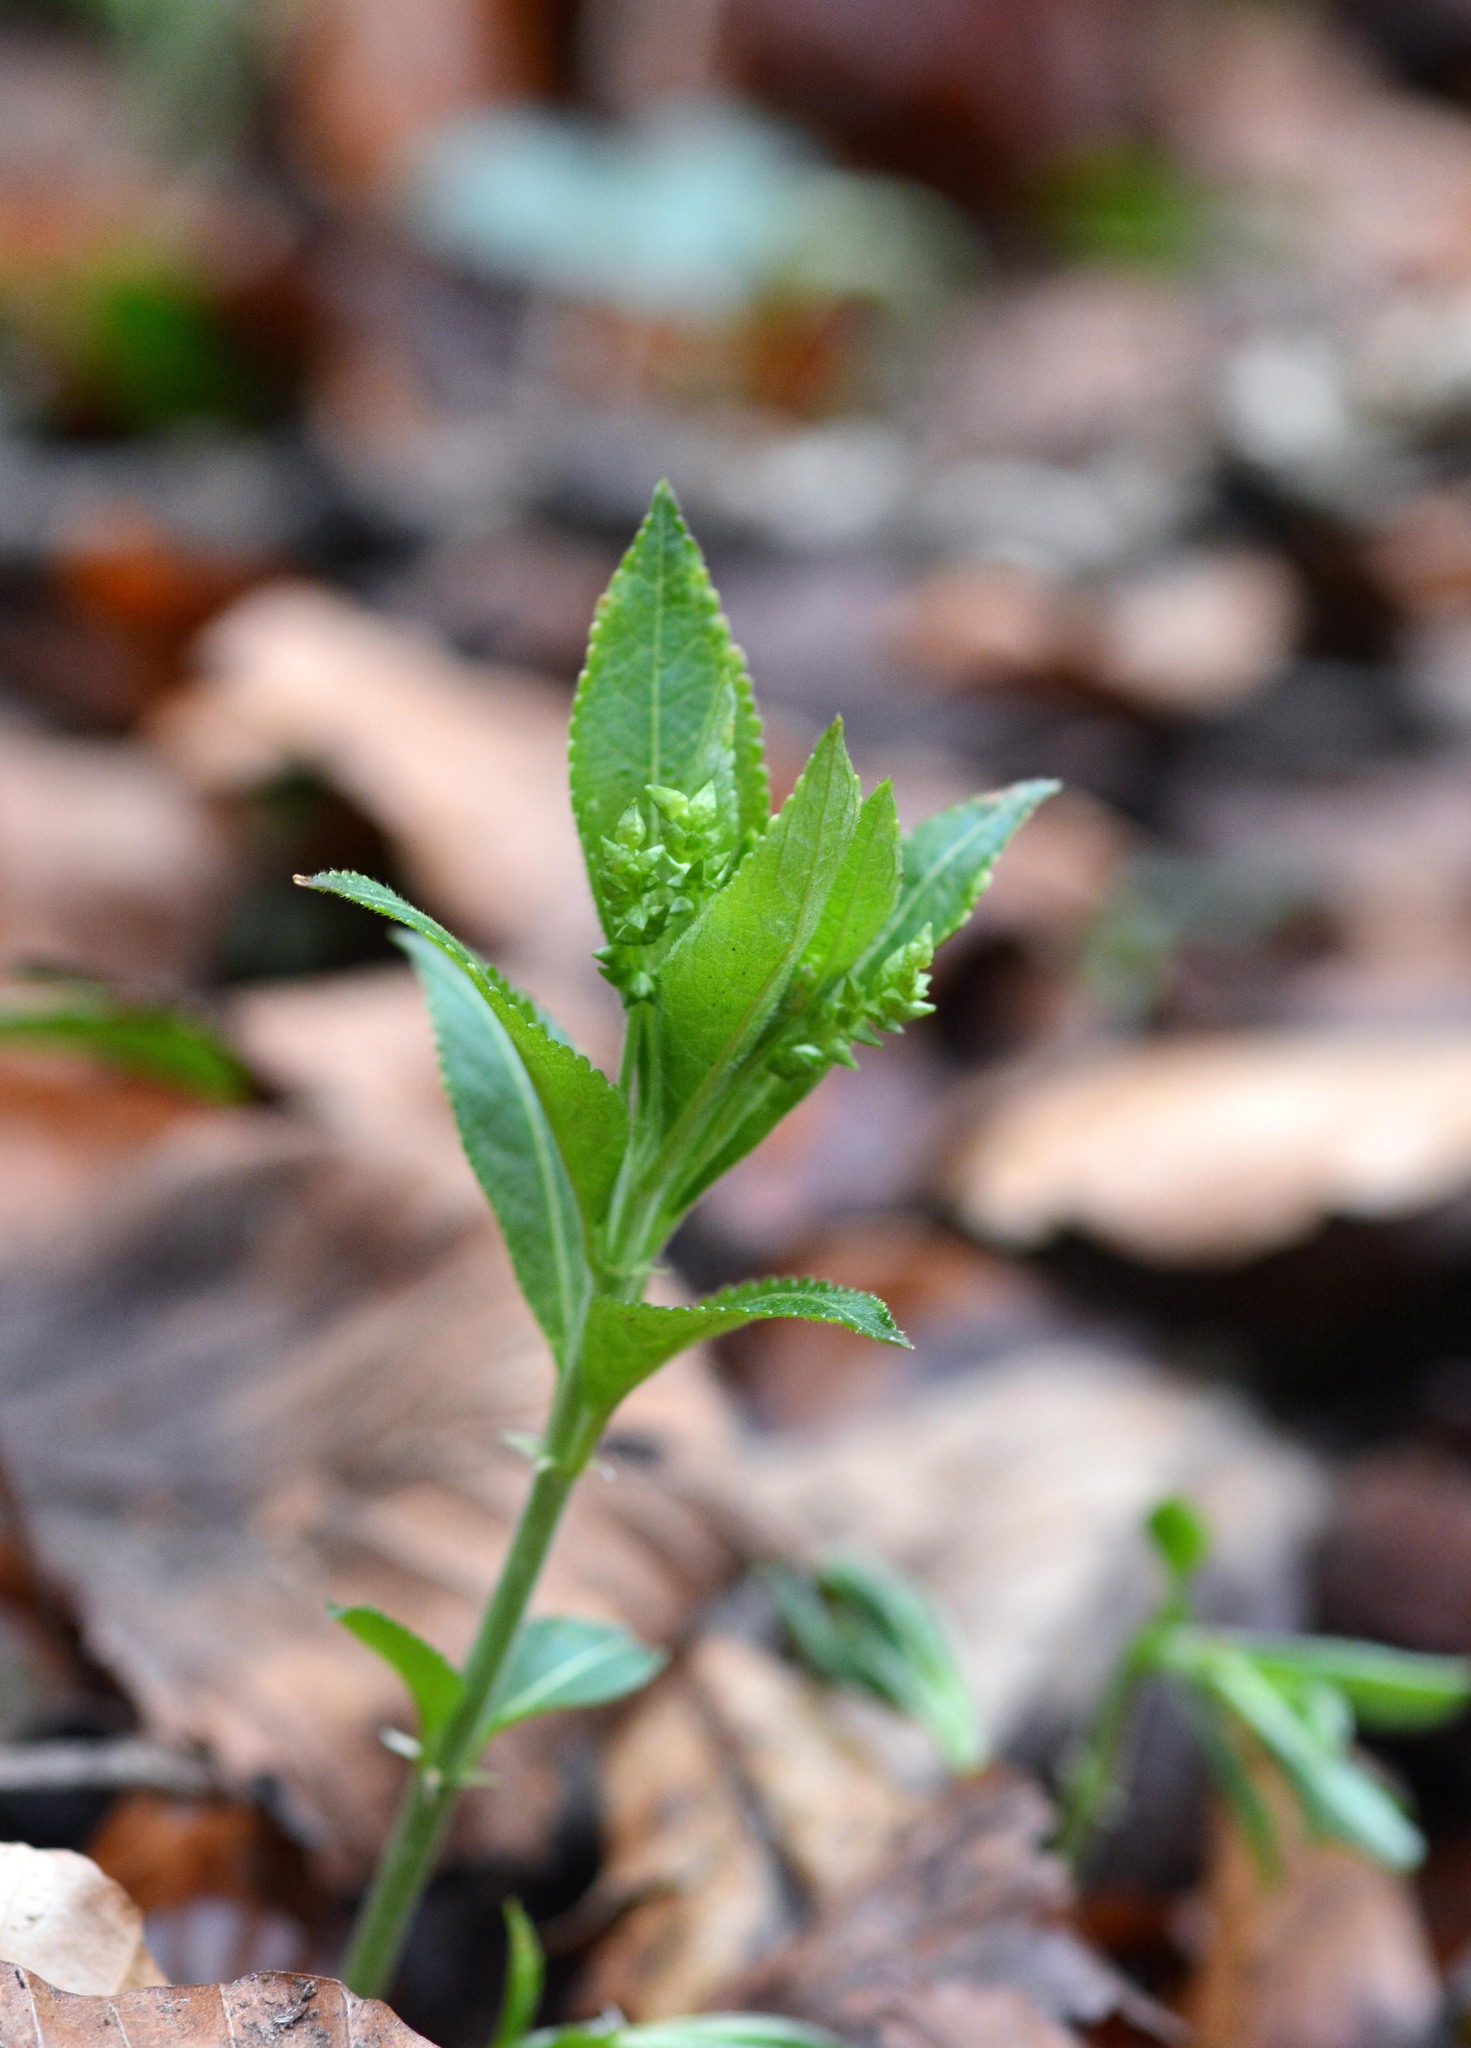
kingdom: Plantae
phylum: Tracheophyta
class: Magnoliopsida
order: Malpighiales
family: Euphorbiaceae
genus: Mercurialis
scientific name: Mercurialis perennis
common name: Dog mercury
